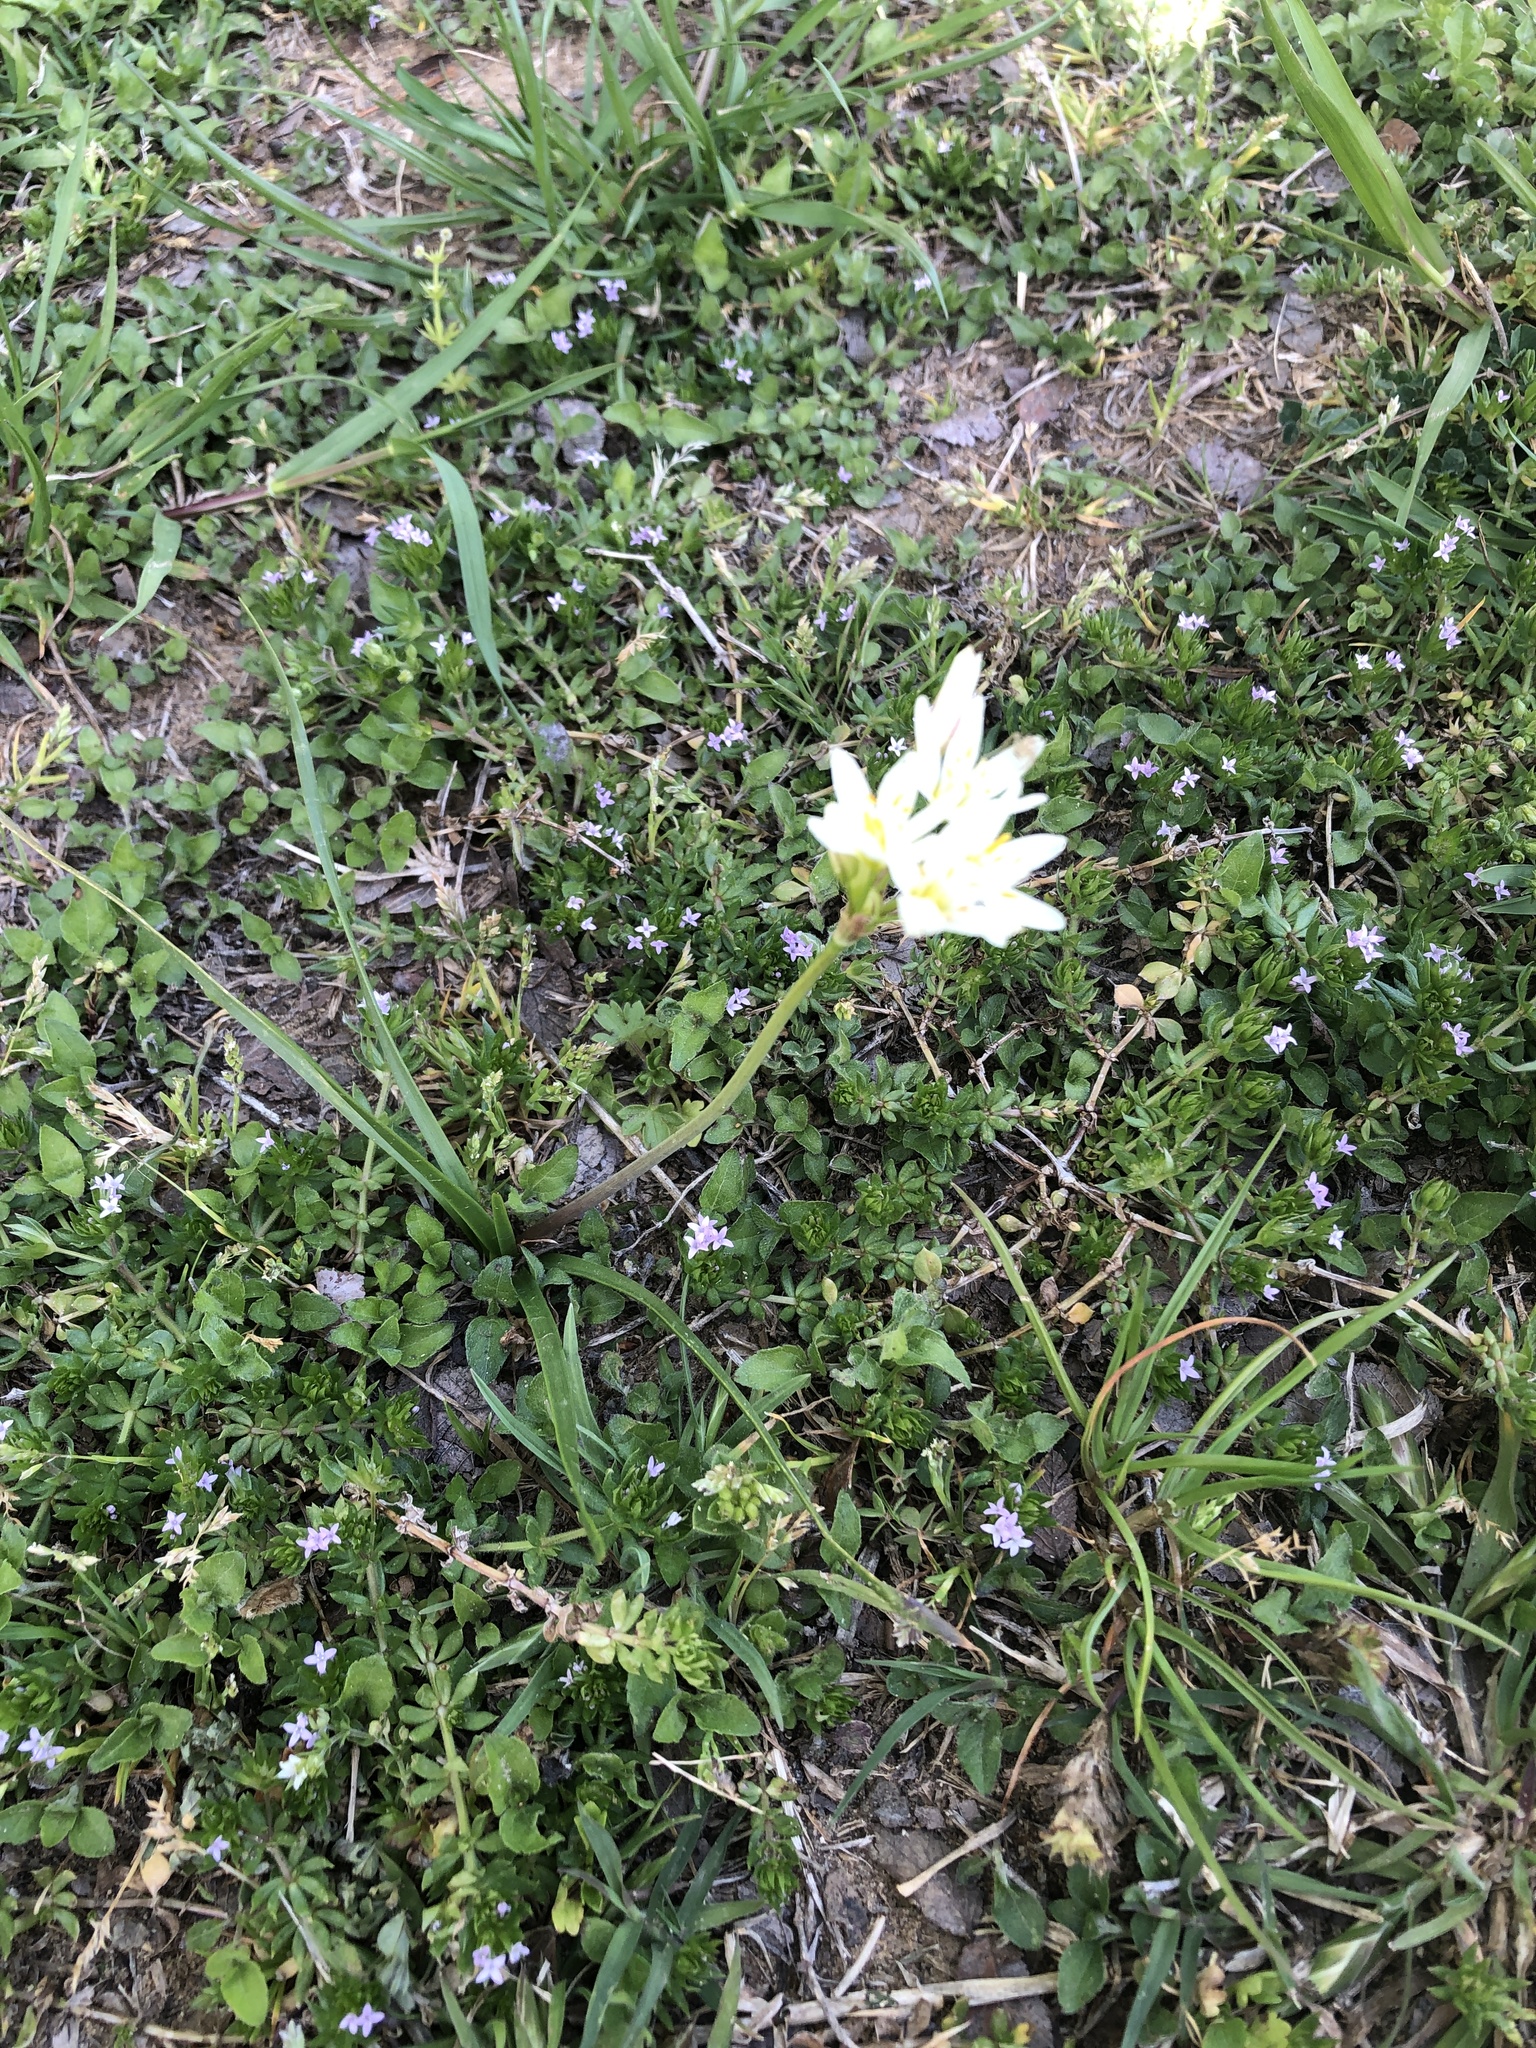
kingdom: Plantae
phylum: Tracheophyta
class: Liliopsida
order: Asparagales
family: Amaryllidaceae
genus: Nothoscordum
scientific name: Nothoscordum bivalve
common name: Crow-poison
